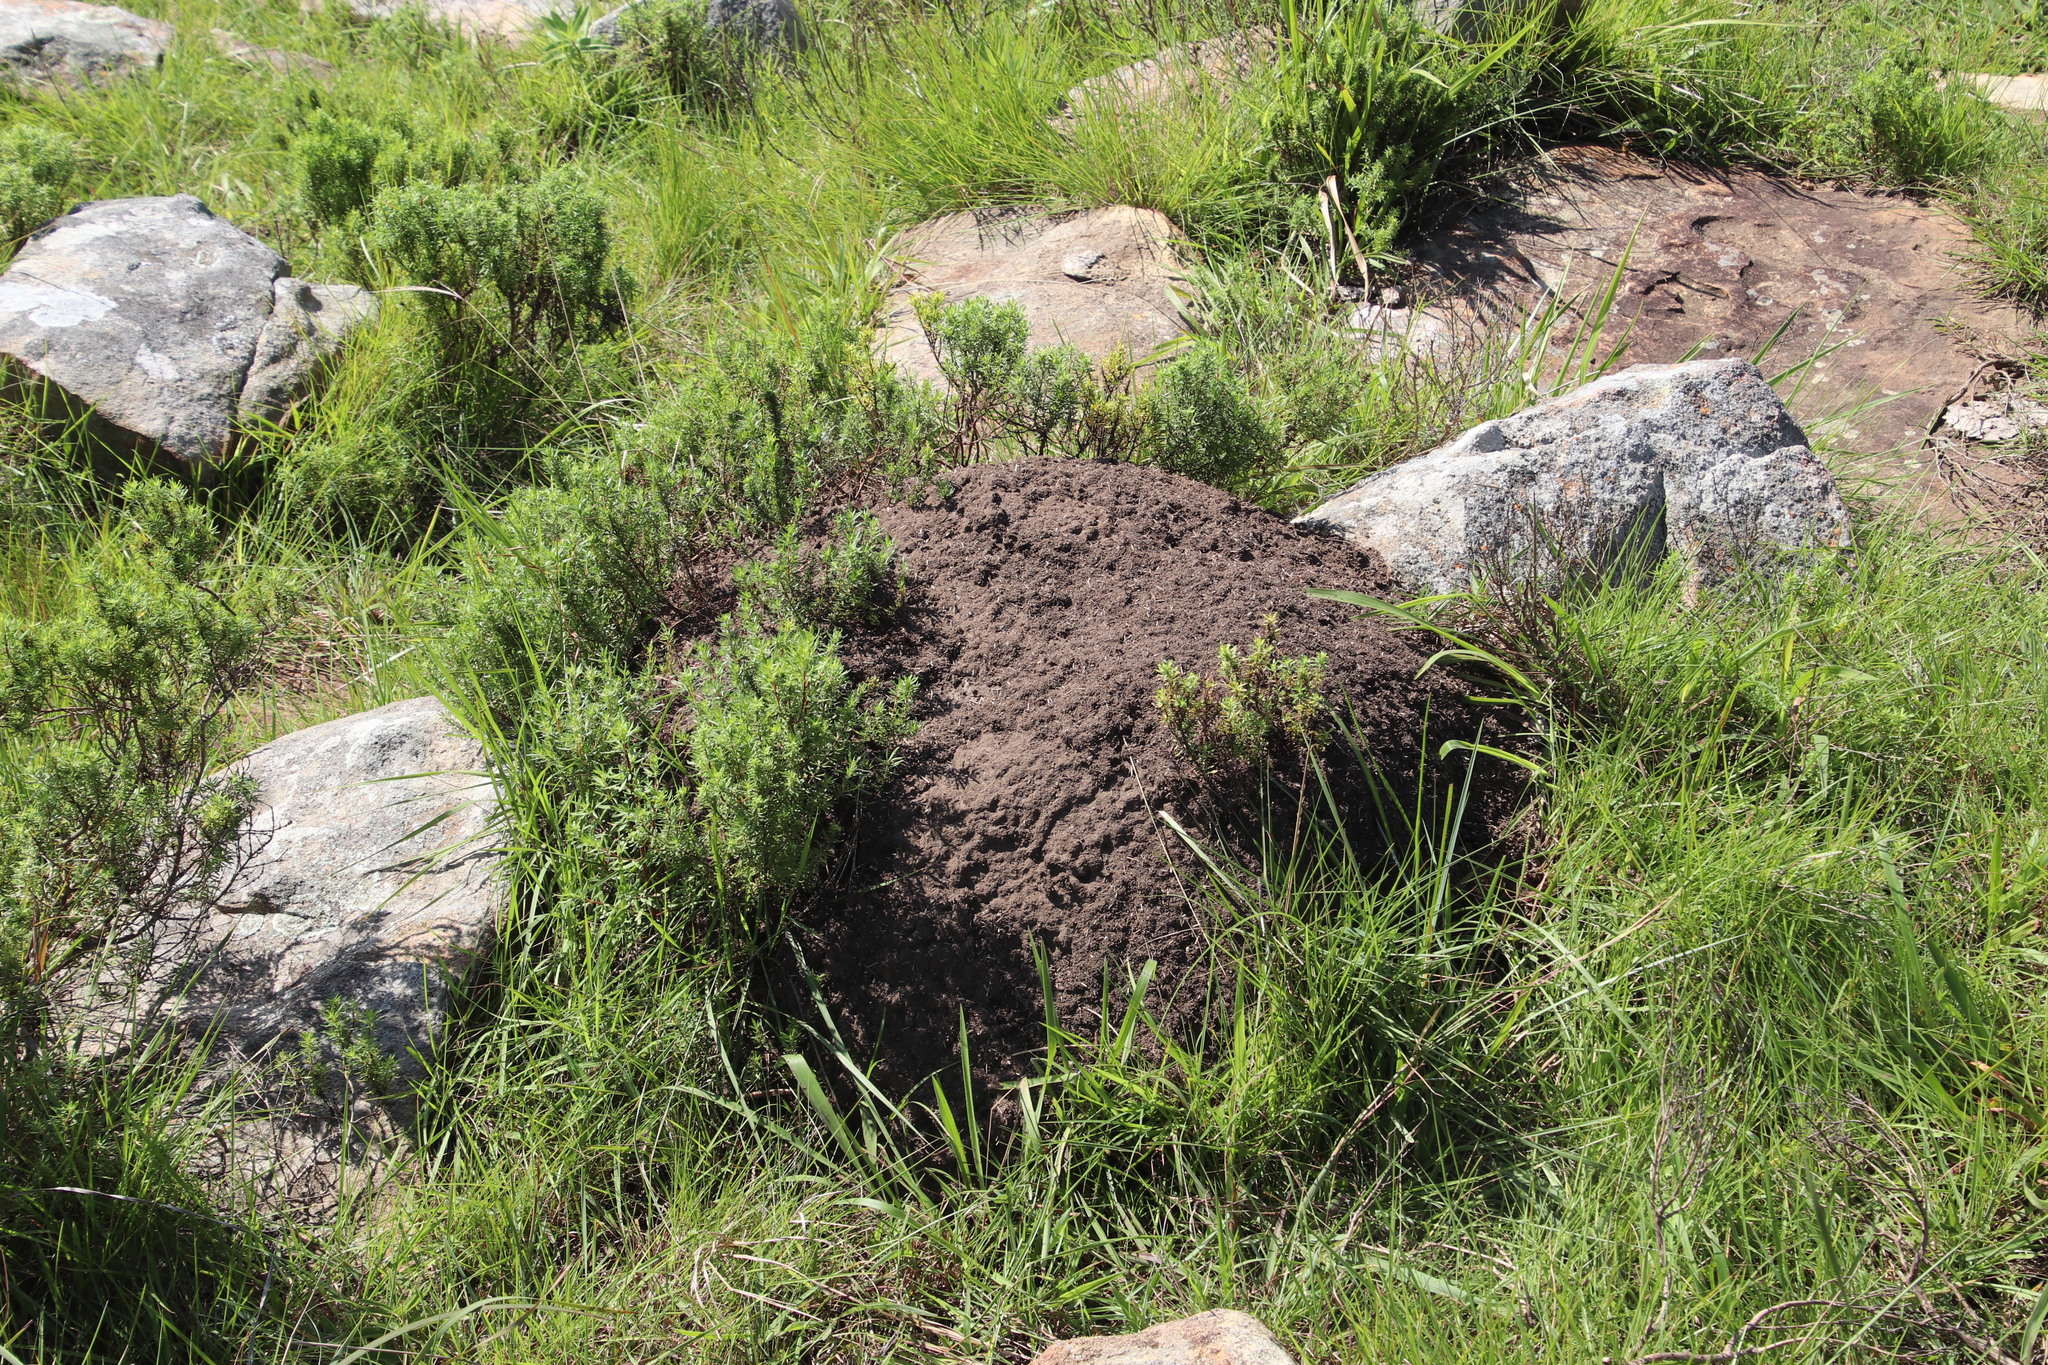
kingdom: Animalia
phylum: Arthropoda
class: Insecta
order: Blattodea
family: Termitidae
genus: Amitermes
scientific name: Amitermes hastatus
